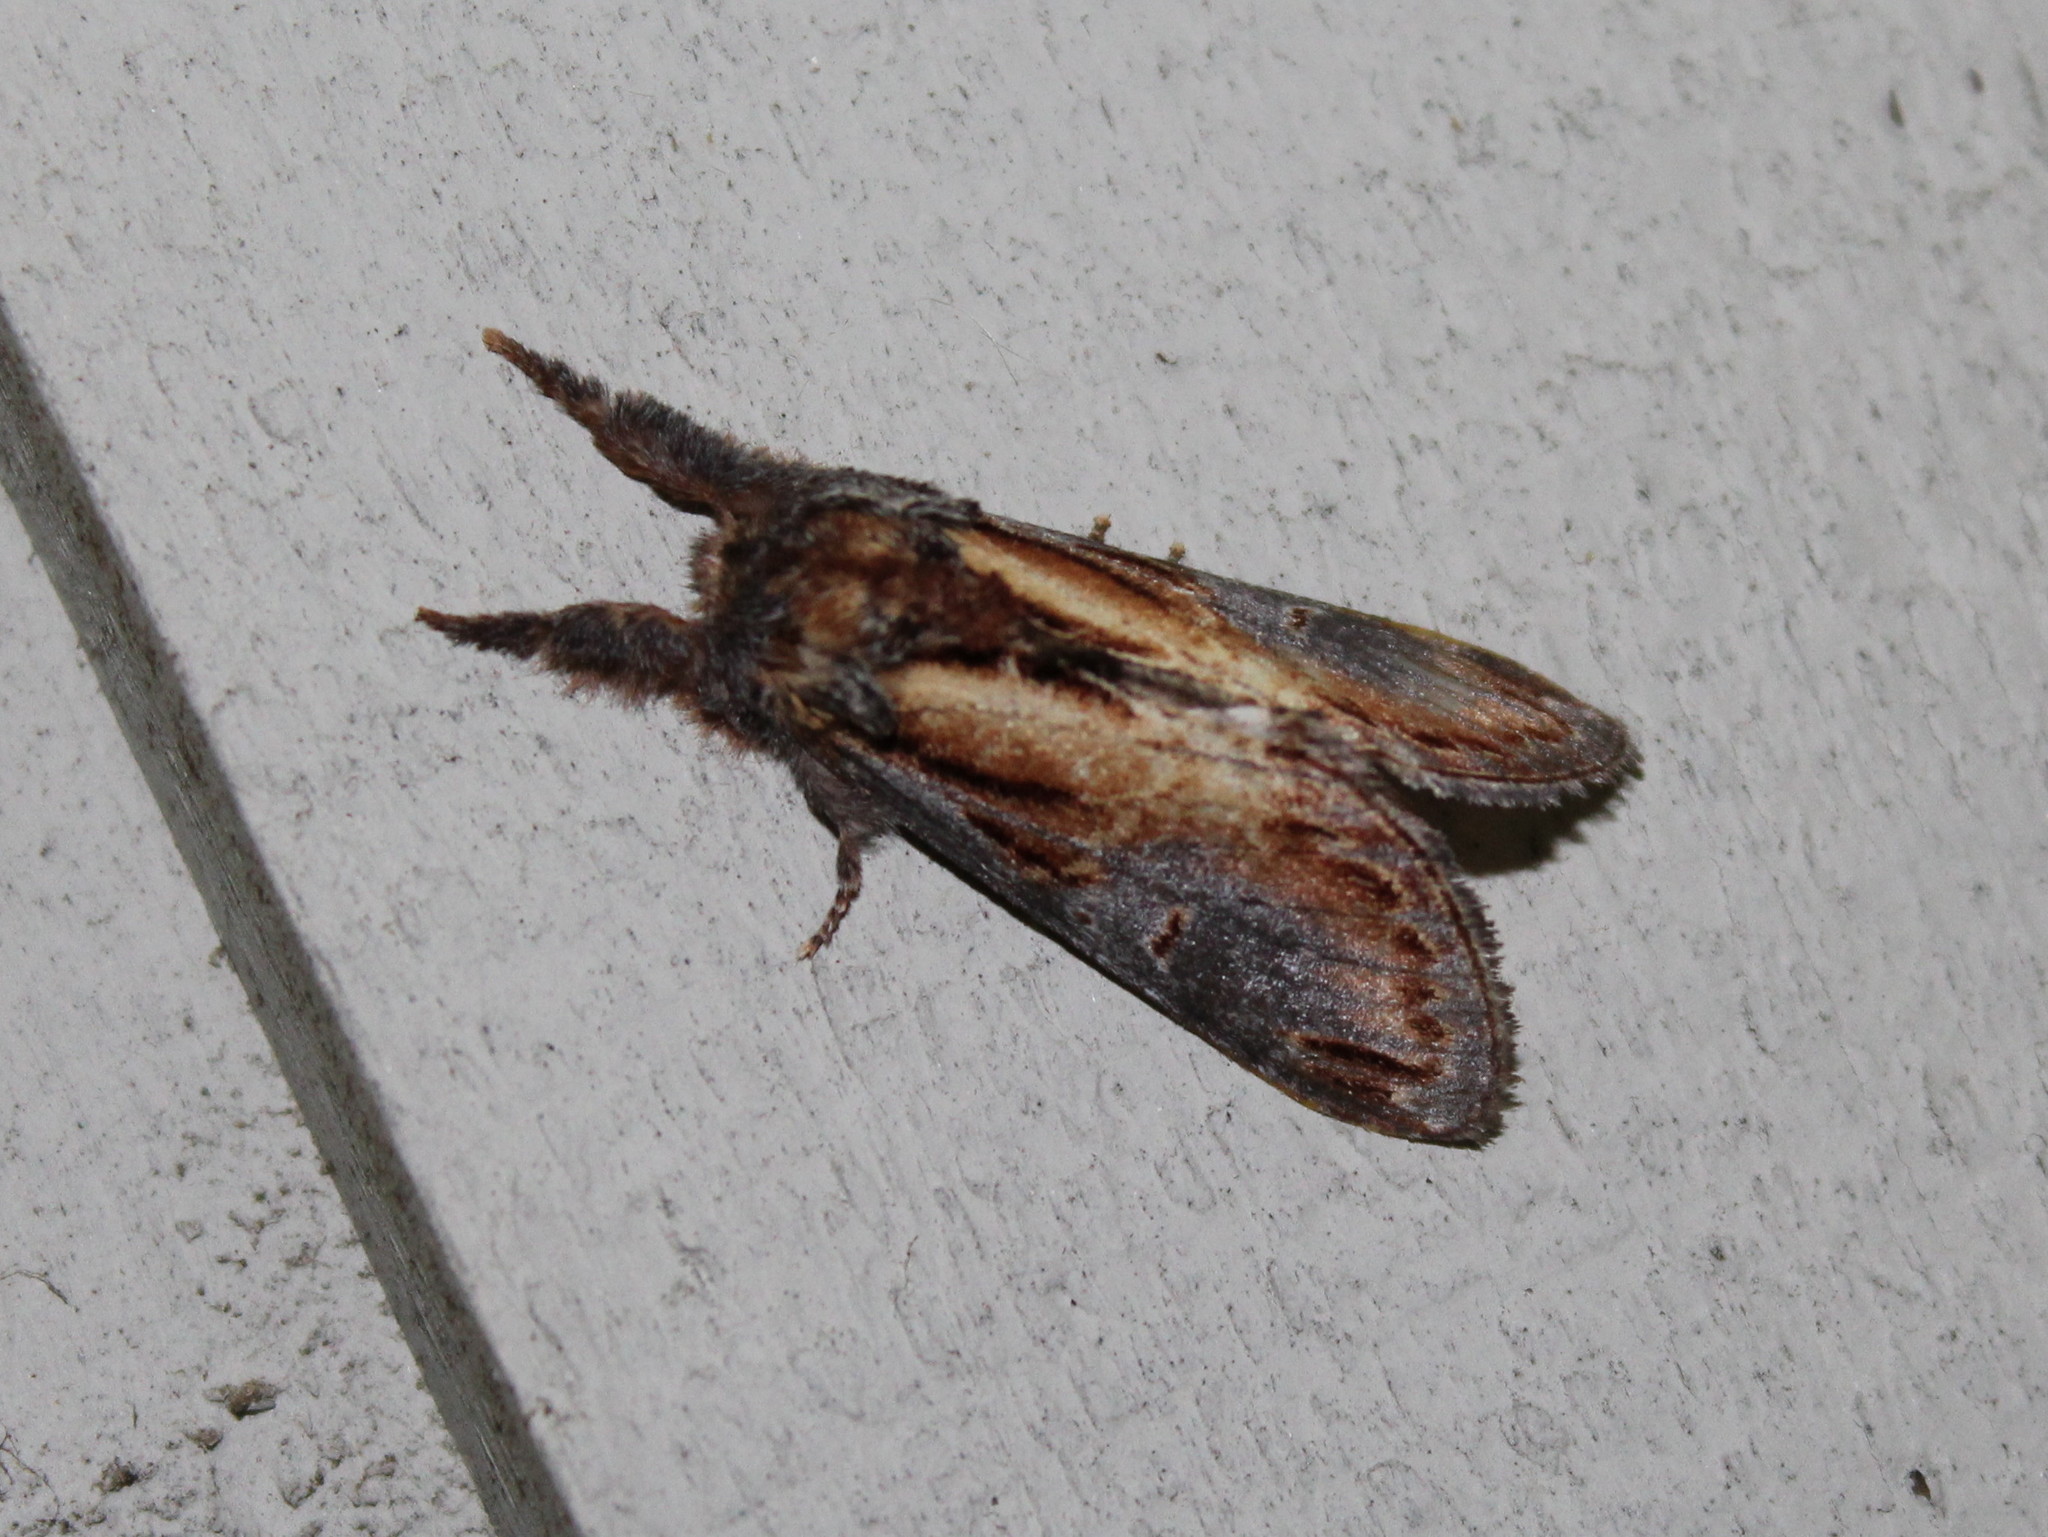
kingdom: Animalia
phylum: Arthropoda
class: Insecta
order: Lepidoptera
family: Notodontidae
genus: Notodonta
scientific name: Notodonta scitipennis
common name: Finned-willow prominent moth
